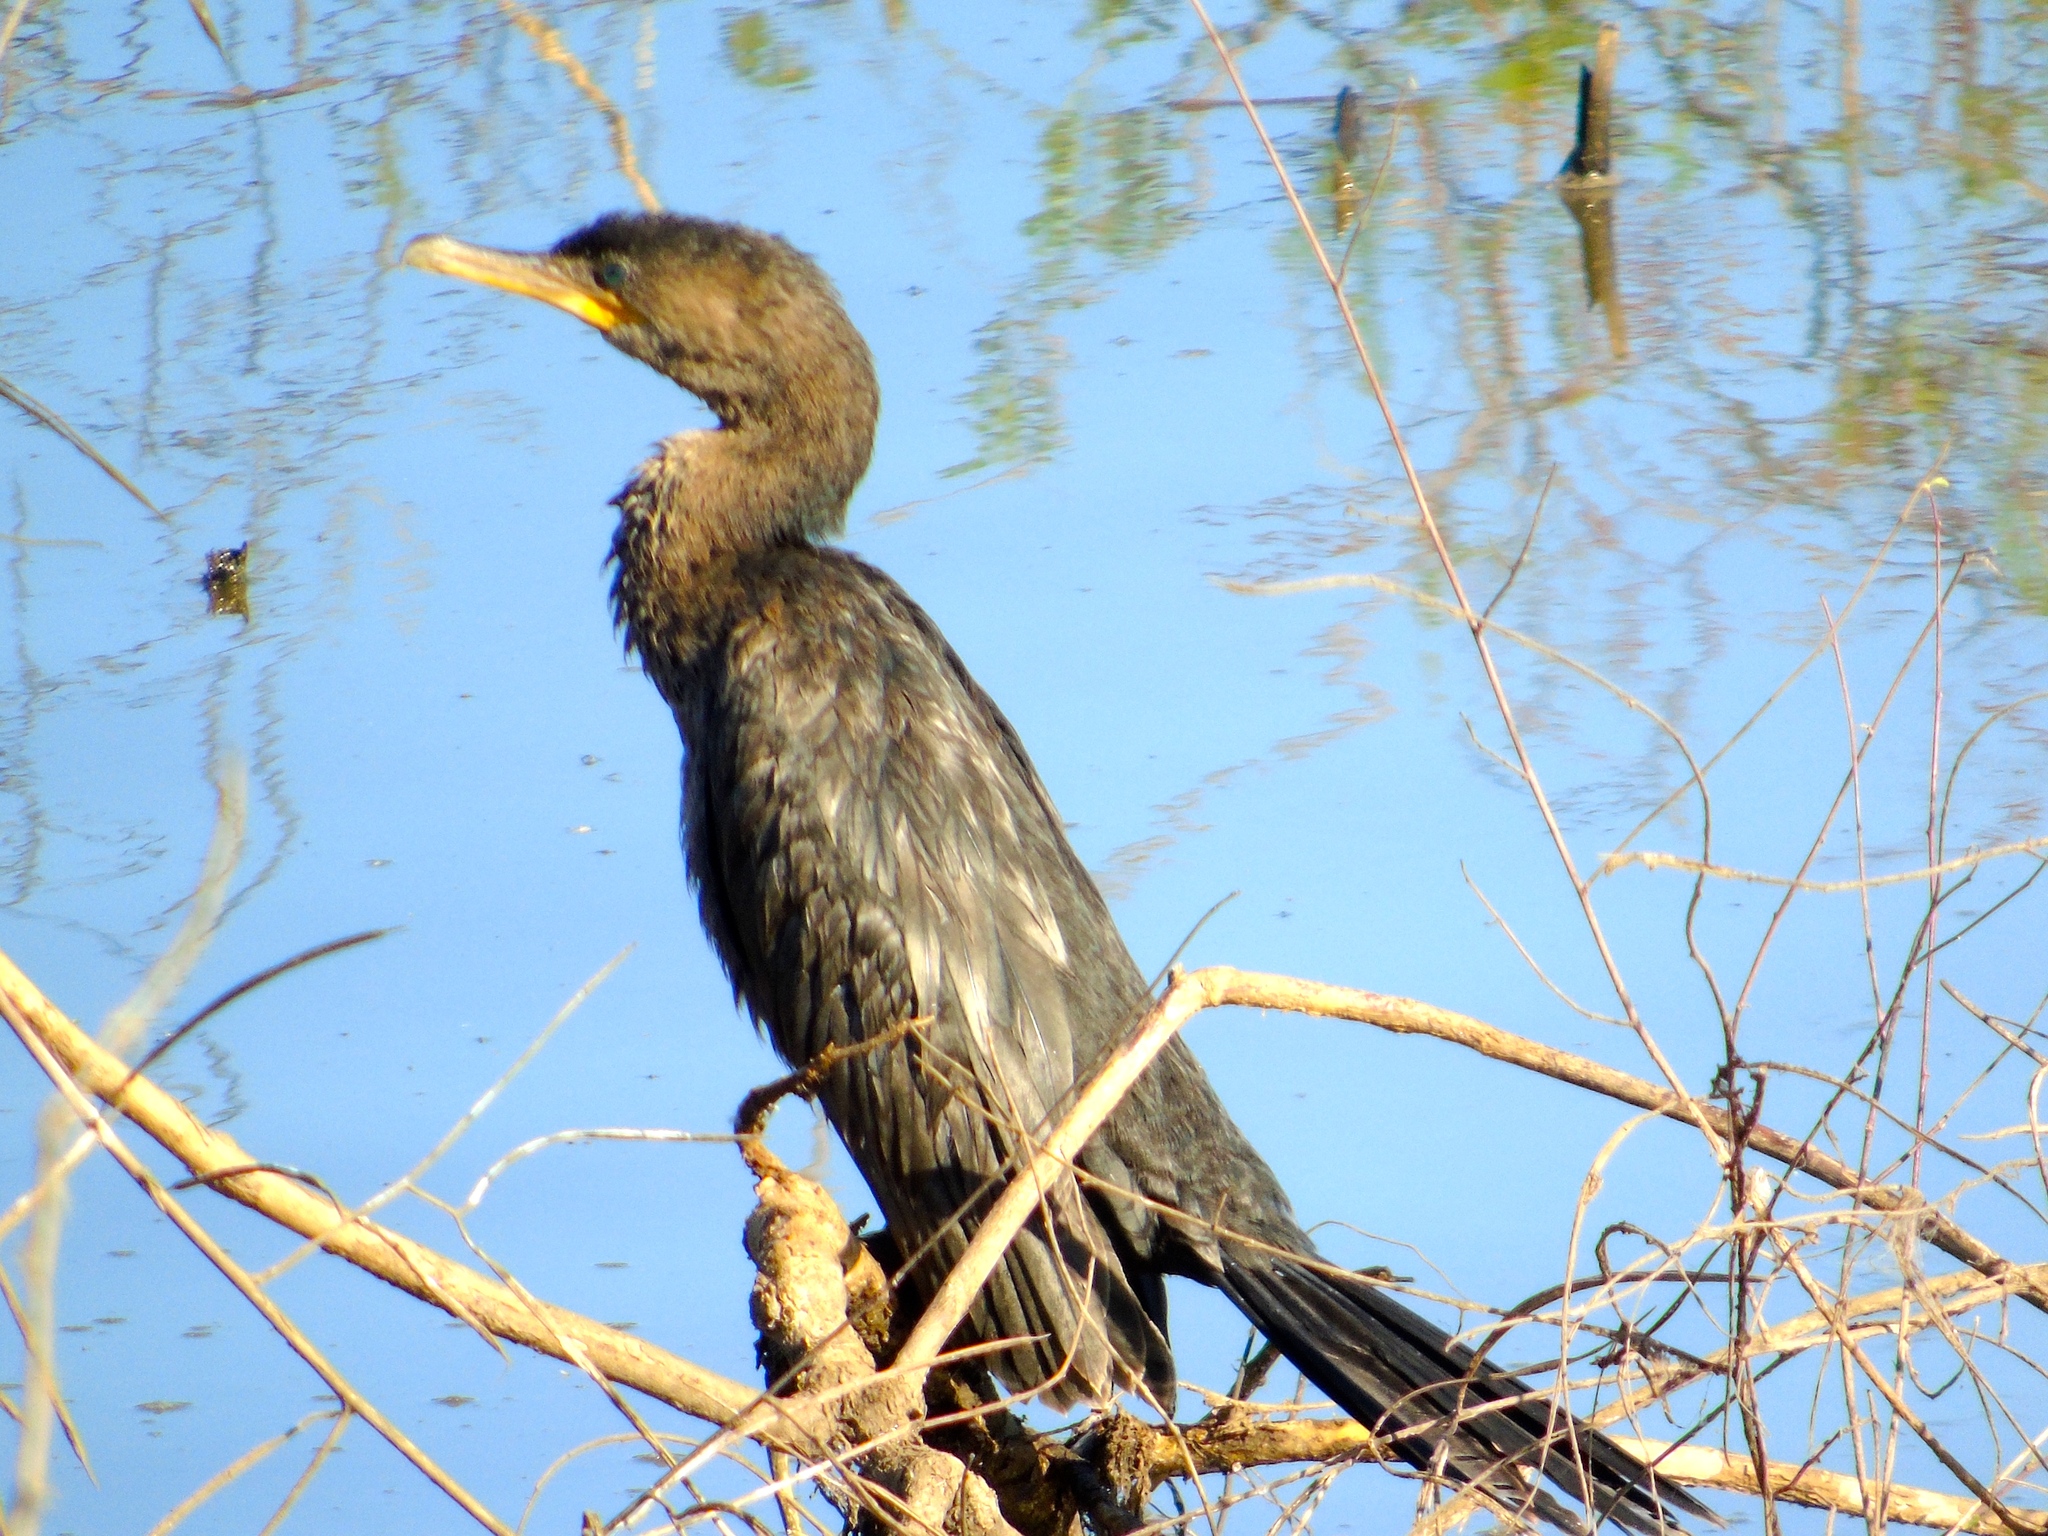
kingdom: Animalia
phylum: Chordata
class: Aves
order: Suliformes
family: Phalacrocoracidae
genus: Phalacrocorax
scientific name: Phalacrocorax brasilianus
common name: Neotropic cormorant
